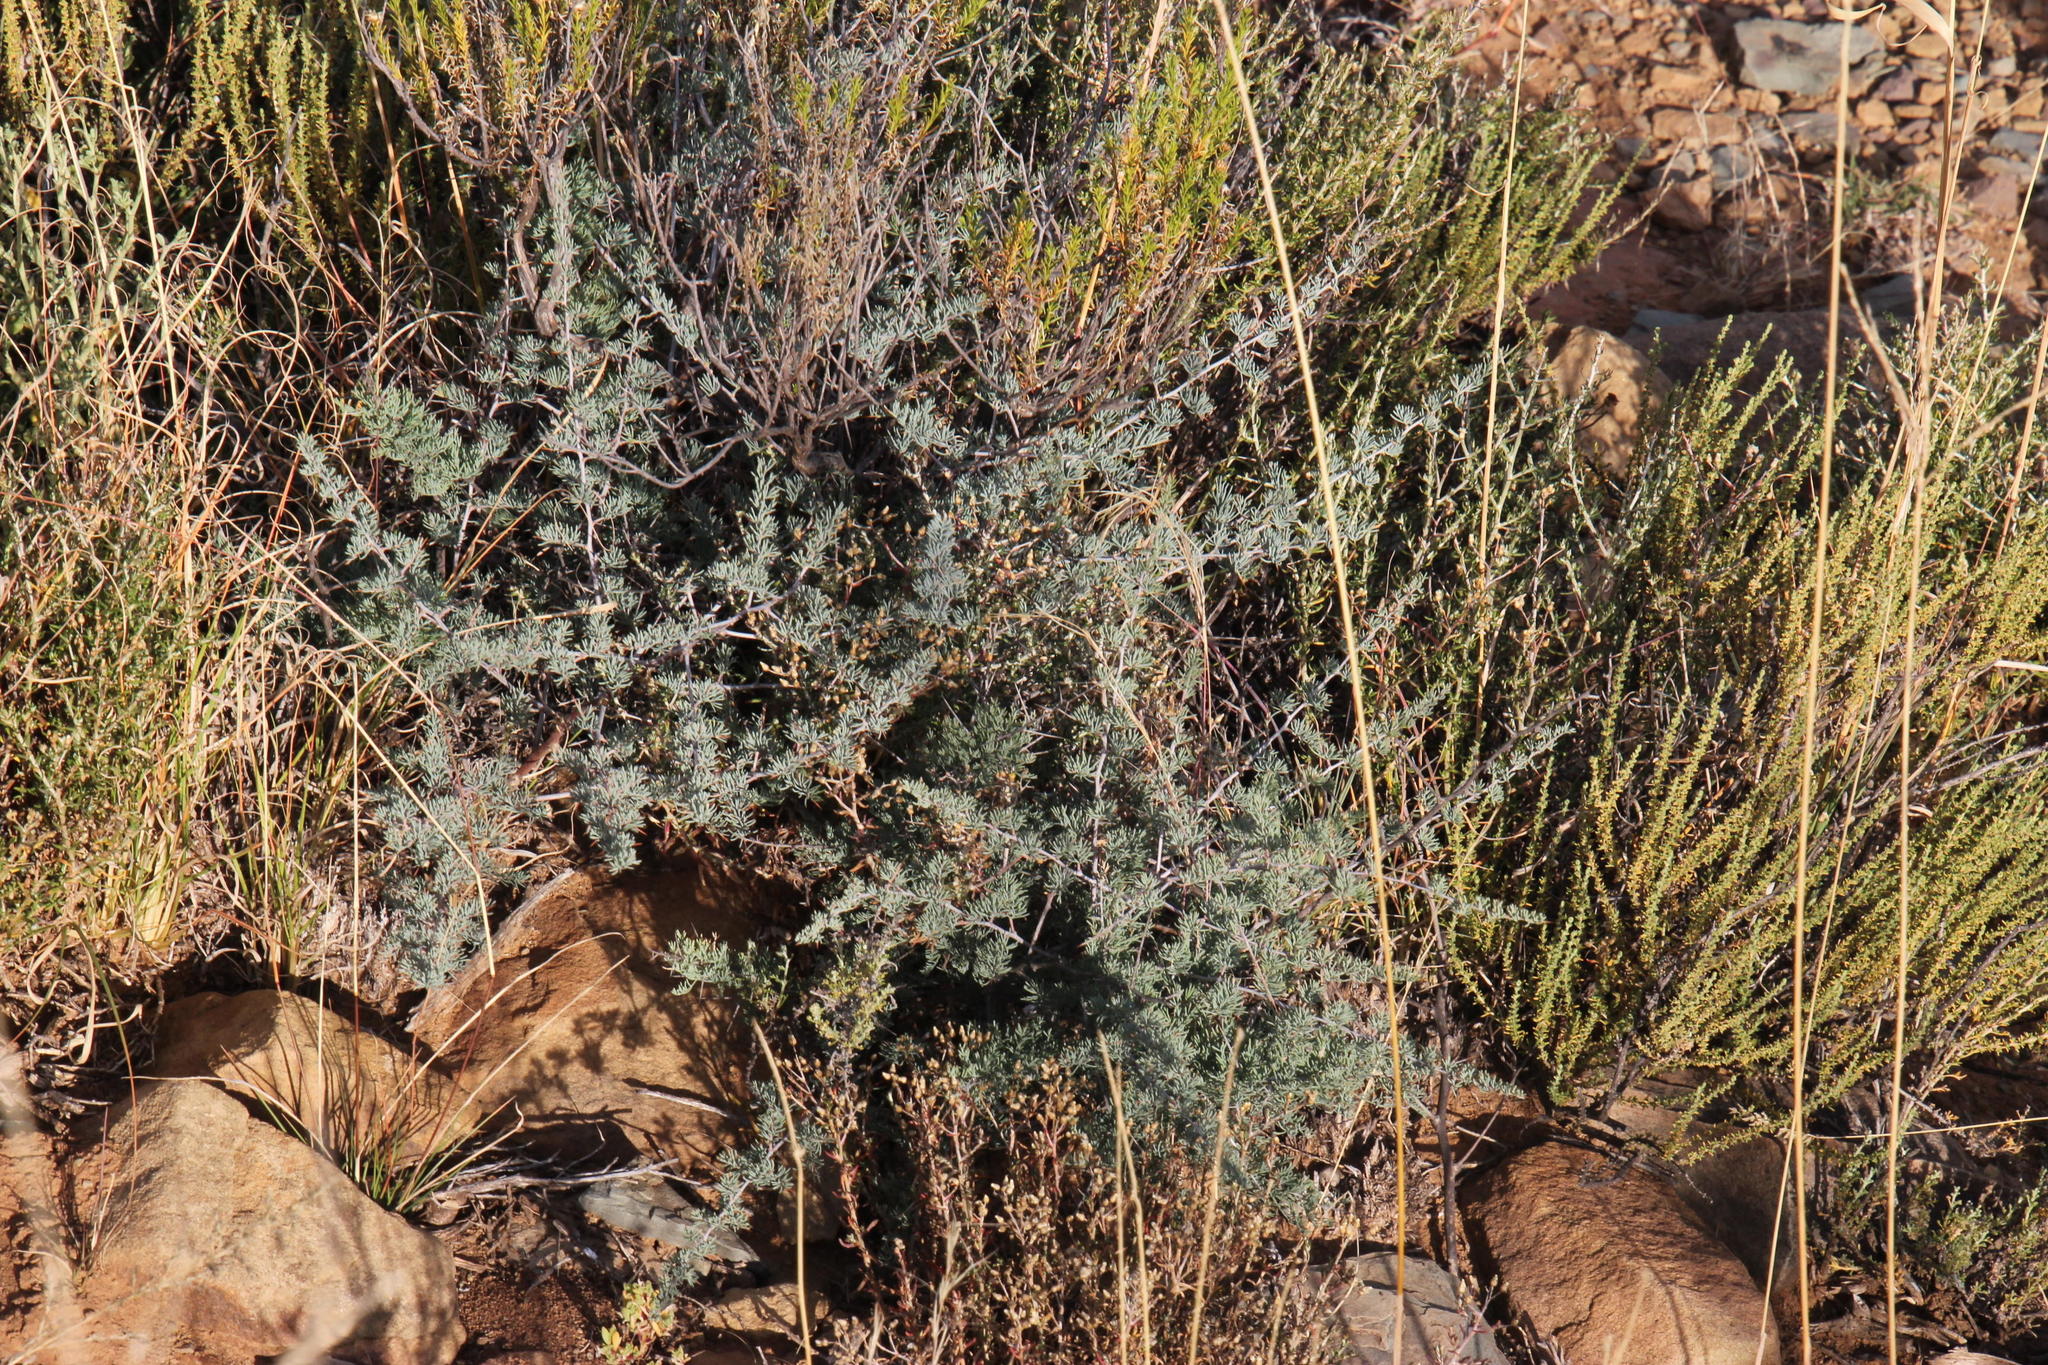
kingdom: Plantae
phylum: Tracheophyta
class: Liliopsida
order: Asparagales
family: Asparagaceae
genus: Asparagus
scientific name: Asparagus glaucus
